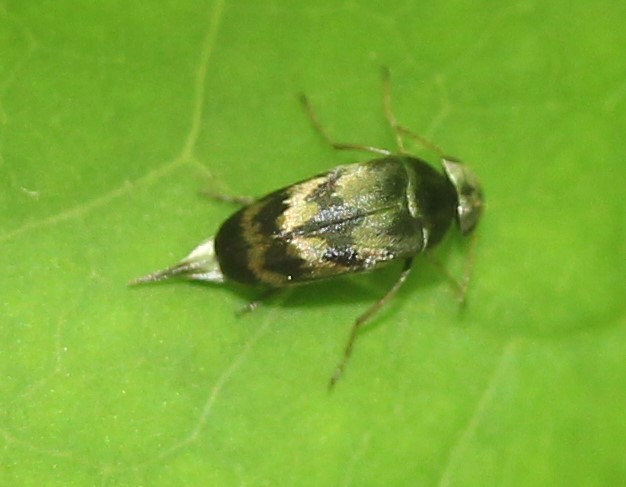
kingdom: Animalia
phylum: Arthropoda
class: Insecta
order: Coleoptera
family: Mordellidae
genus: Paramordellaria
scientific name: Paramordellaria triloba
